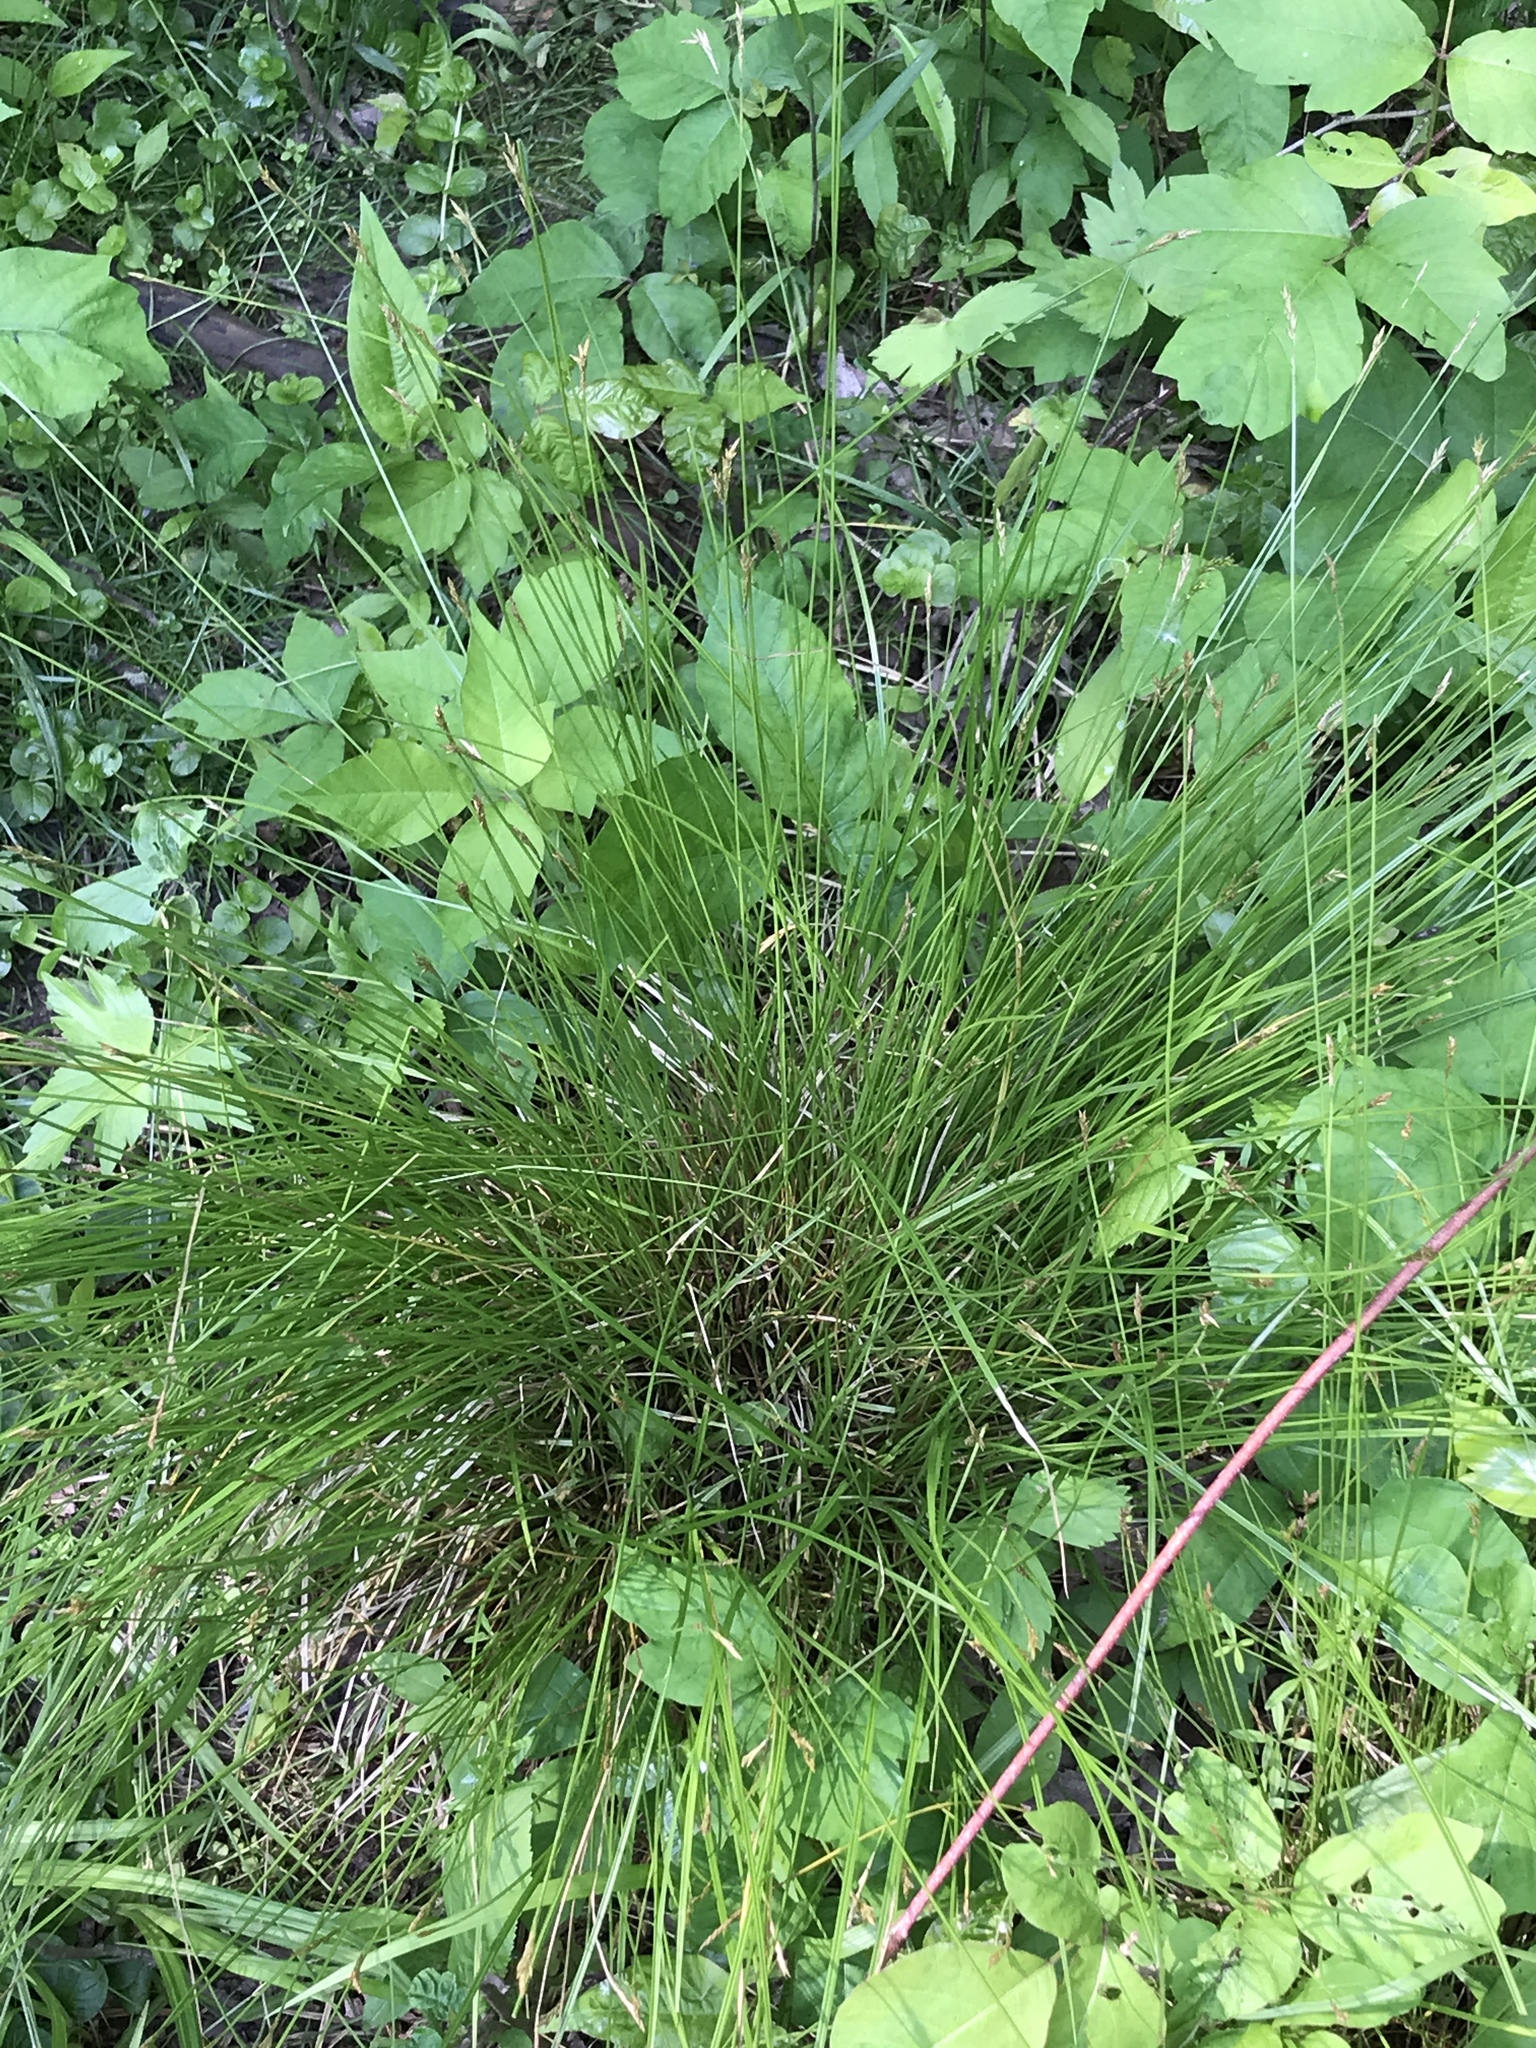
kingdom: Plantae
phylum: Tracheophyta
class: Liliopsida
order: Poales
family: Cyperaceae
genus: Carex
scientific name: Carex bromoides
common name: Brome hummock sedge
